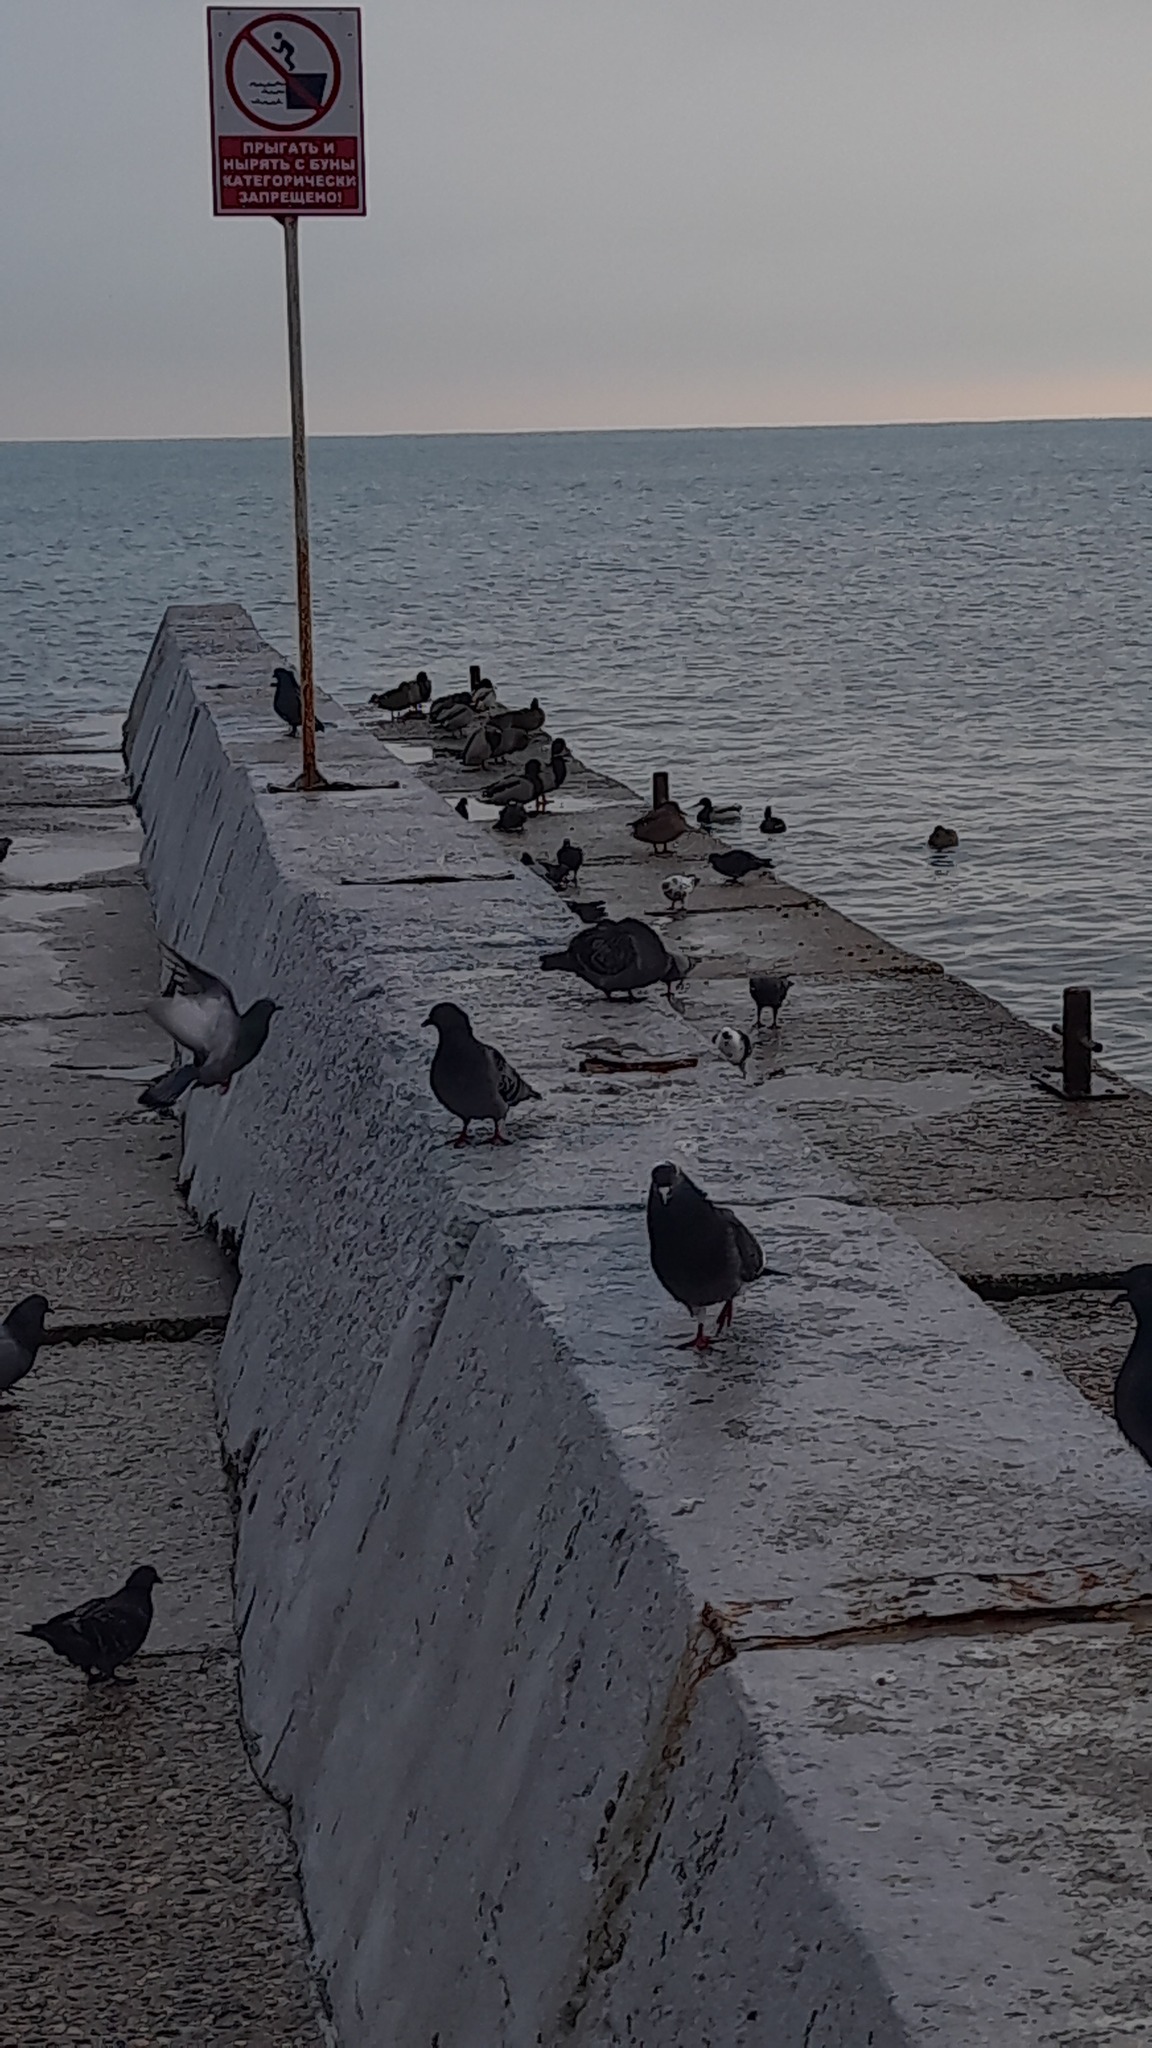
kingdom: Animalia
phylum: Chordata
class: Aves
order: Anseriformes
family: Anatidae
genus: Anas
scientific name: Anas platyrhynchos
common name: Mallard
